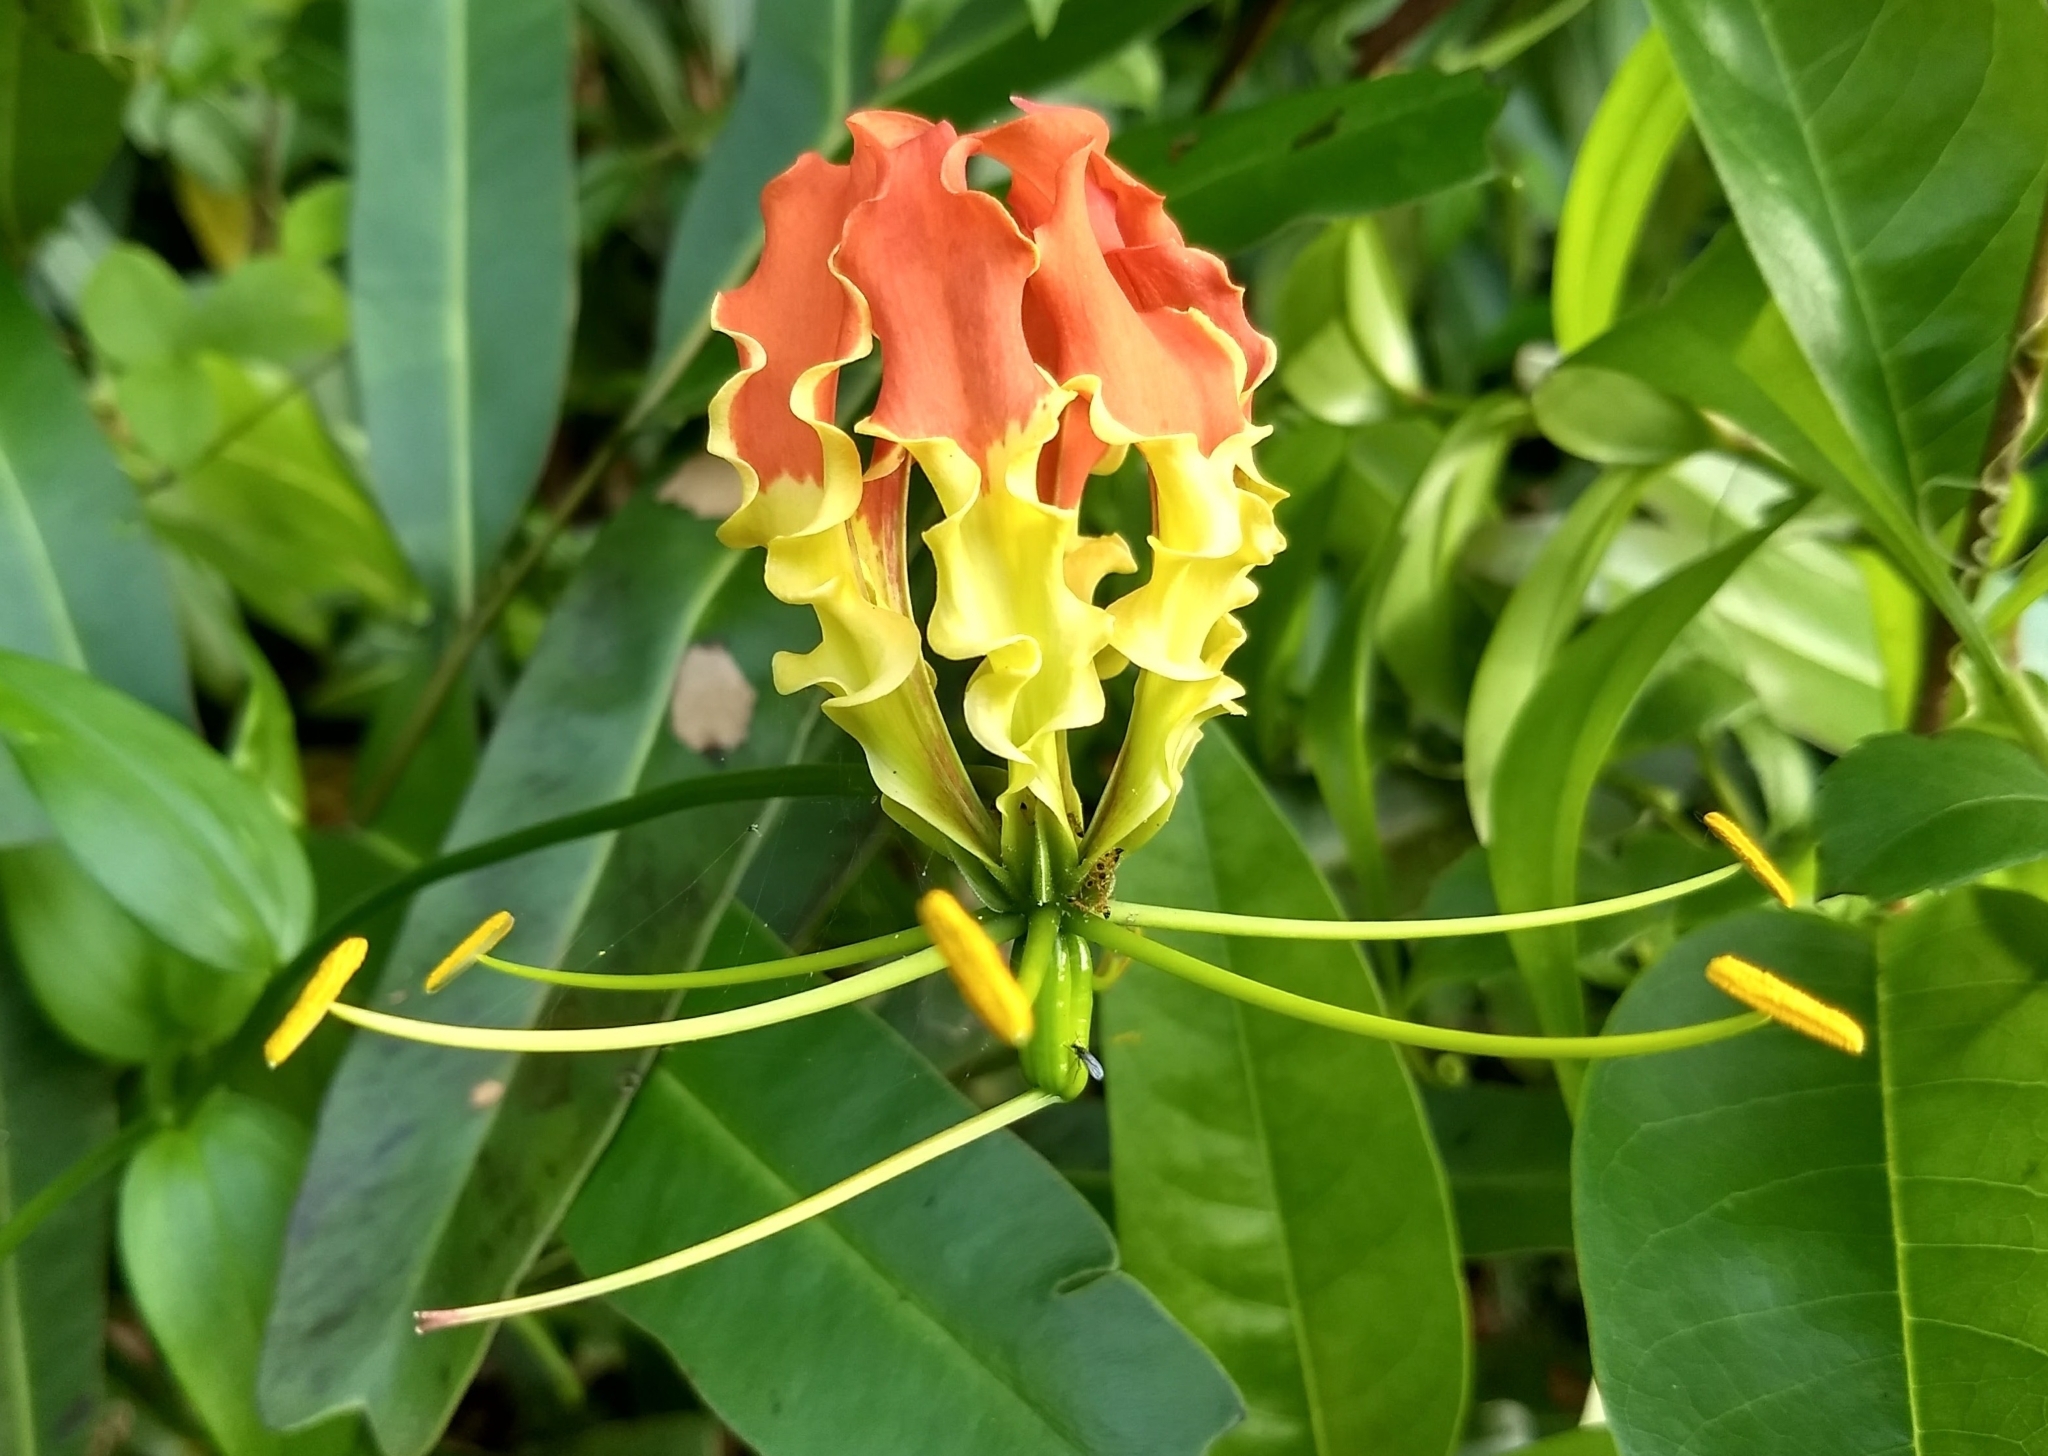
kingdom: Plantae
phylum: Tracheophyta
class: Liliopsida
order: Liliales
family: Colchicaceae
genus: Gloriosa
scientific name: Gloriosa superba
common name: Flame lily
